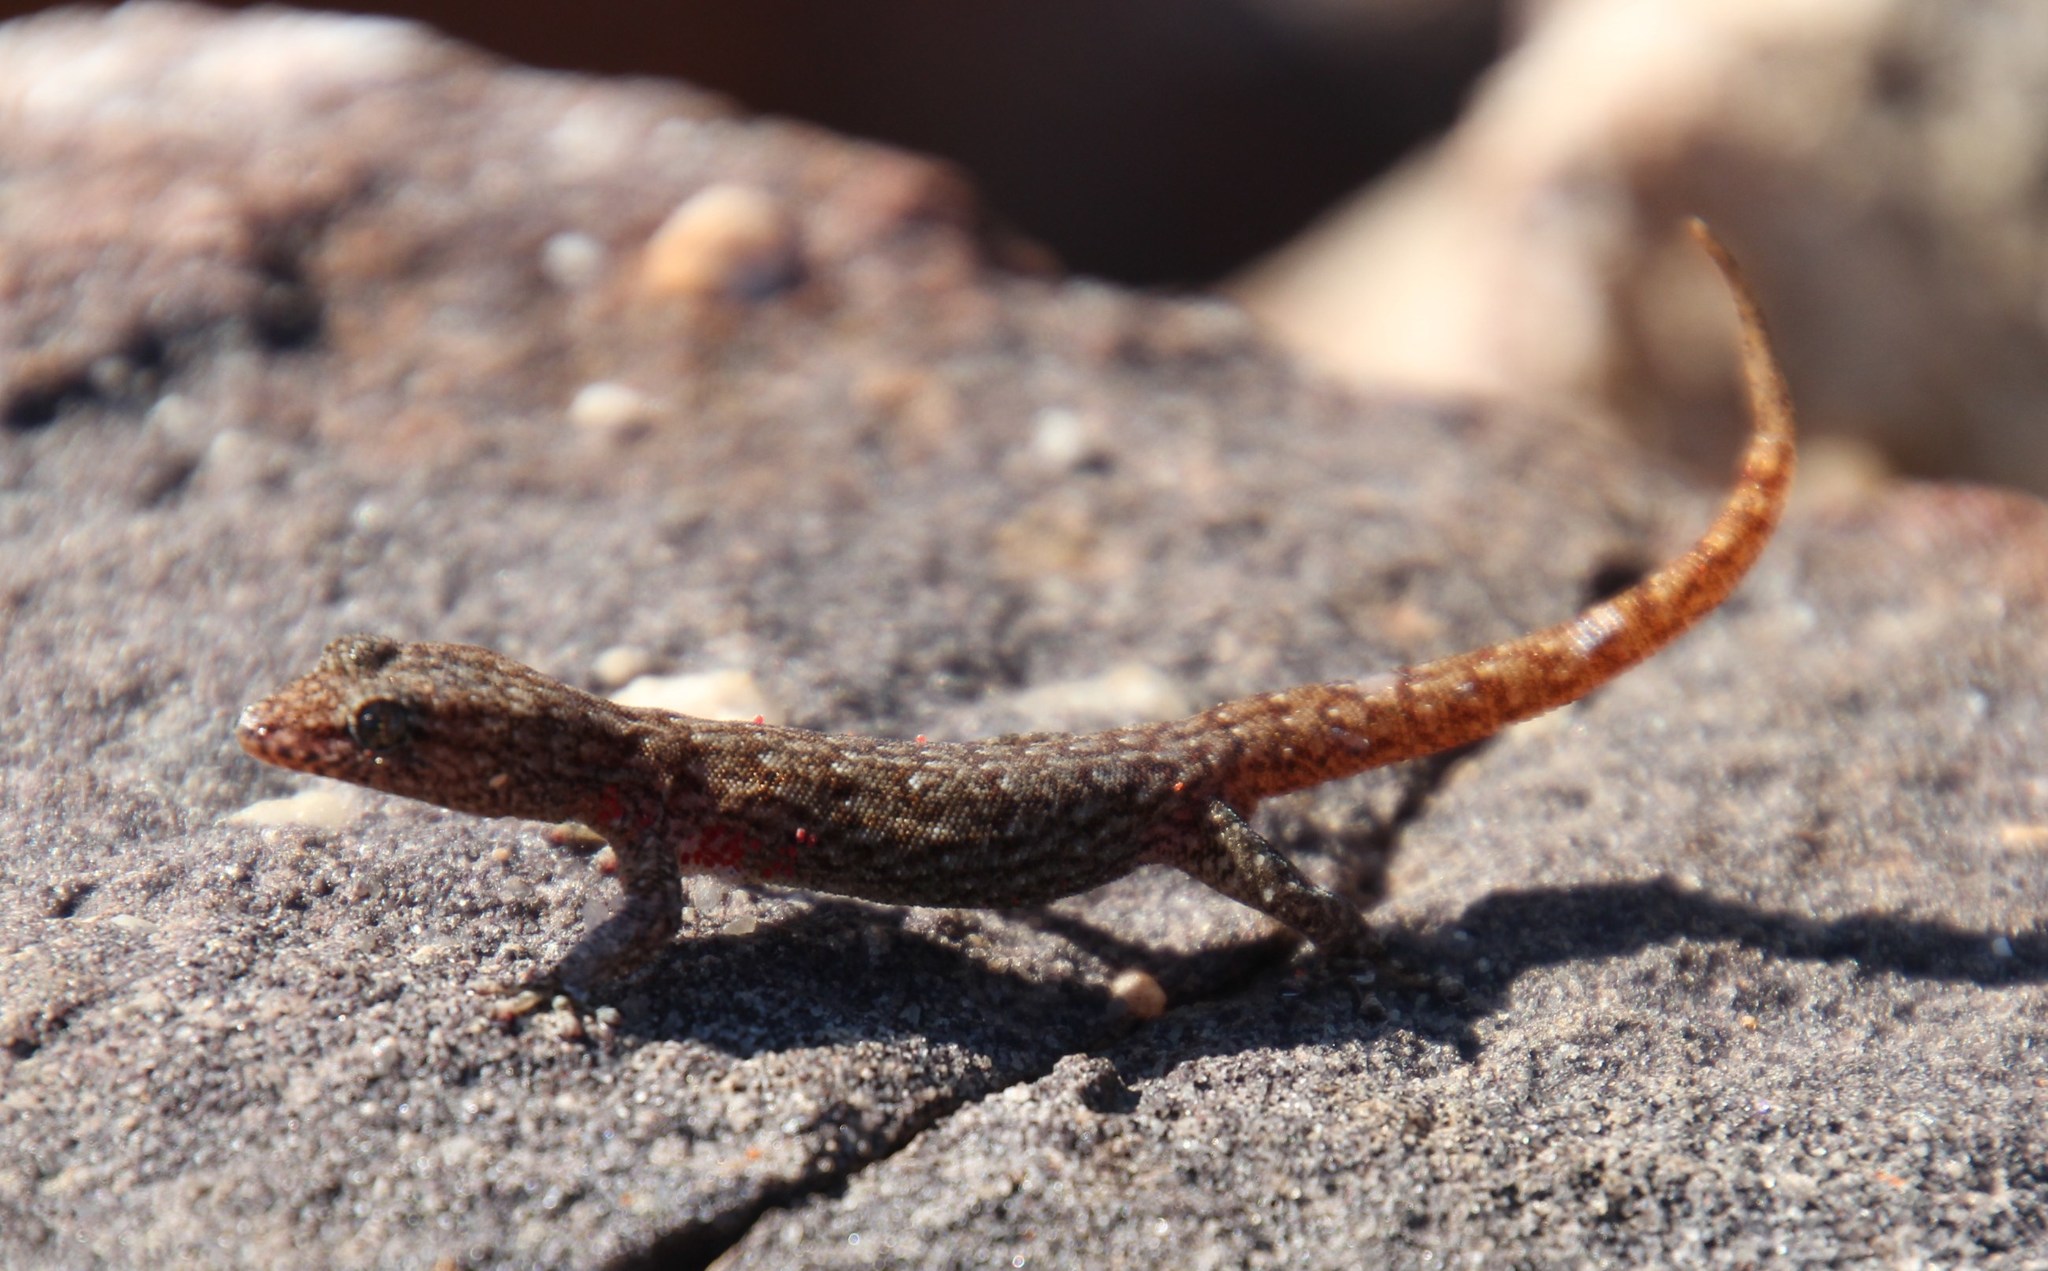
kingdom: Animalia
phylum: Chordata
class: Squamata
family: Gekkonidae
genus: Goggia
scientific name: Goggia hexapora
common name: Cedarberg dwarf leaf-toed gecko
